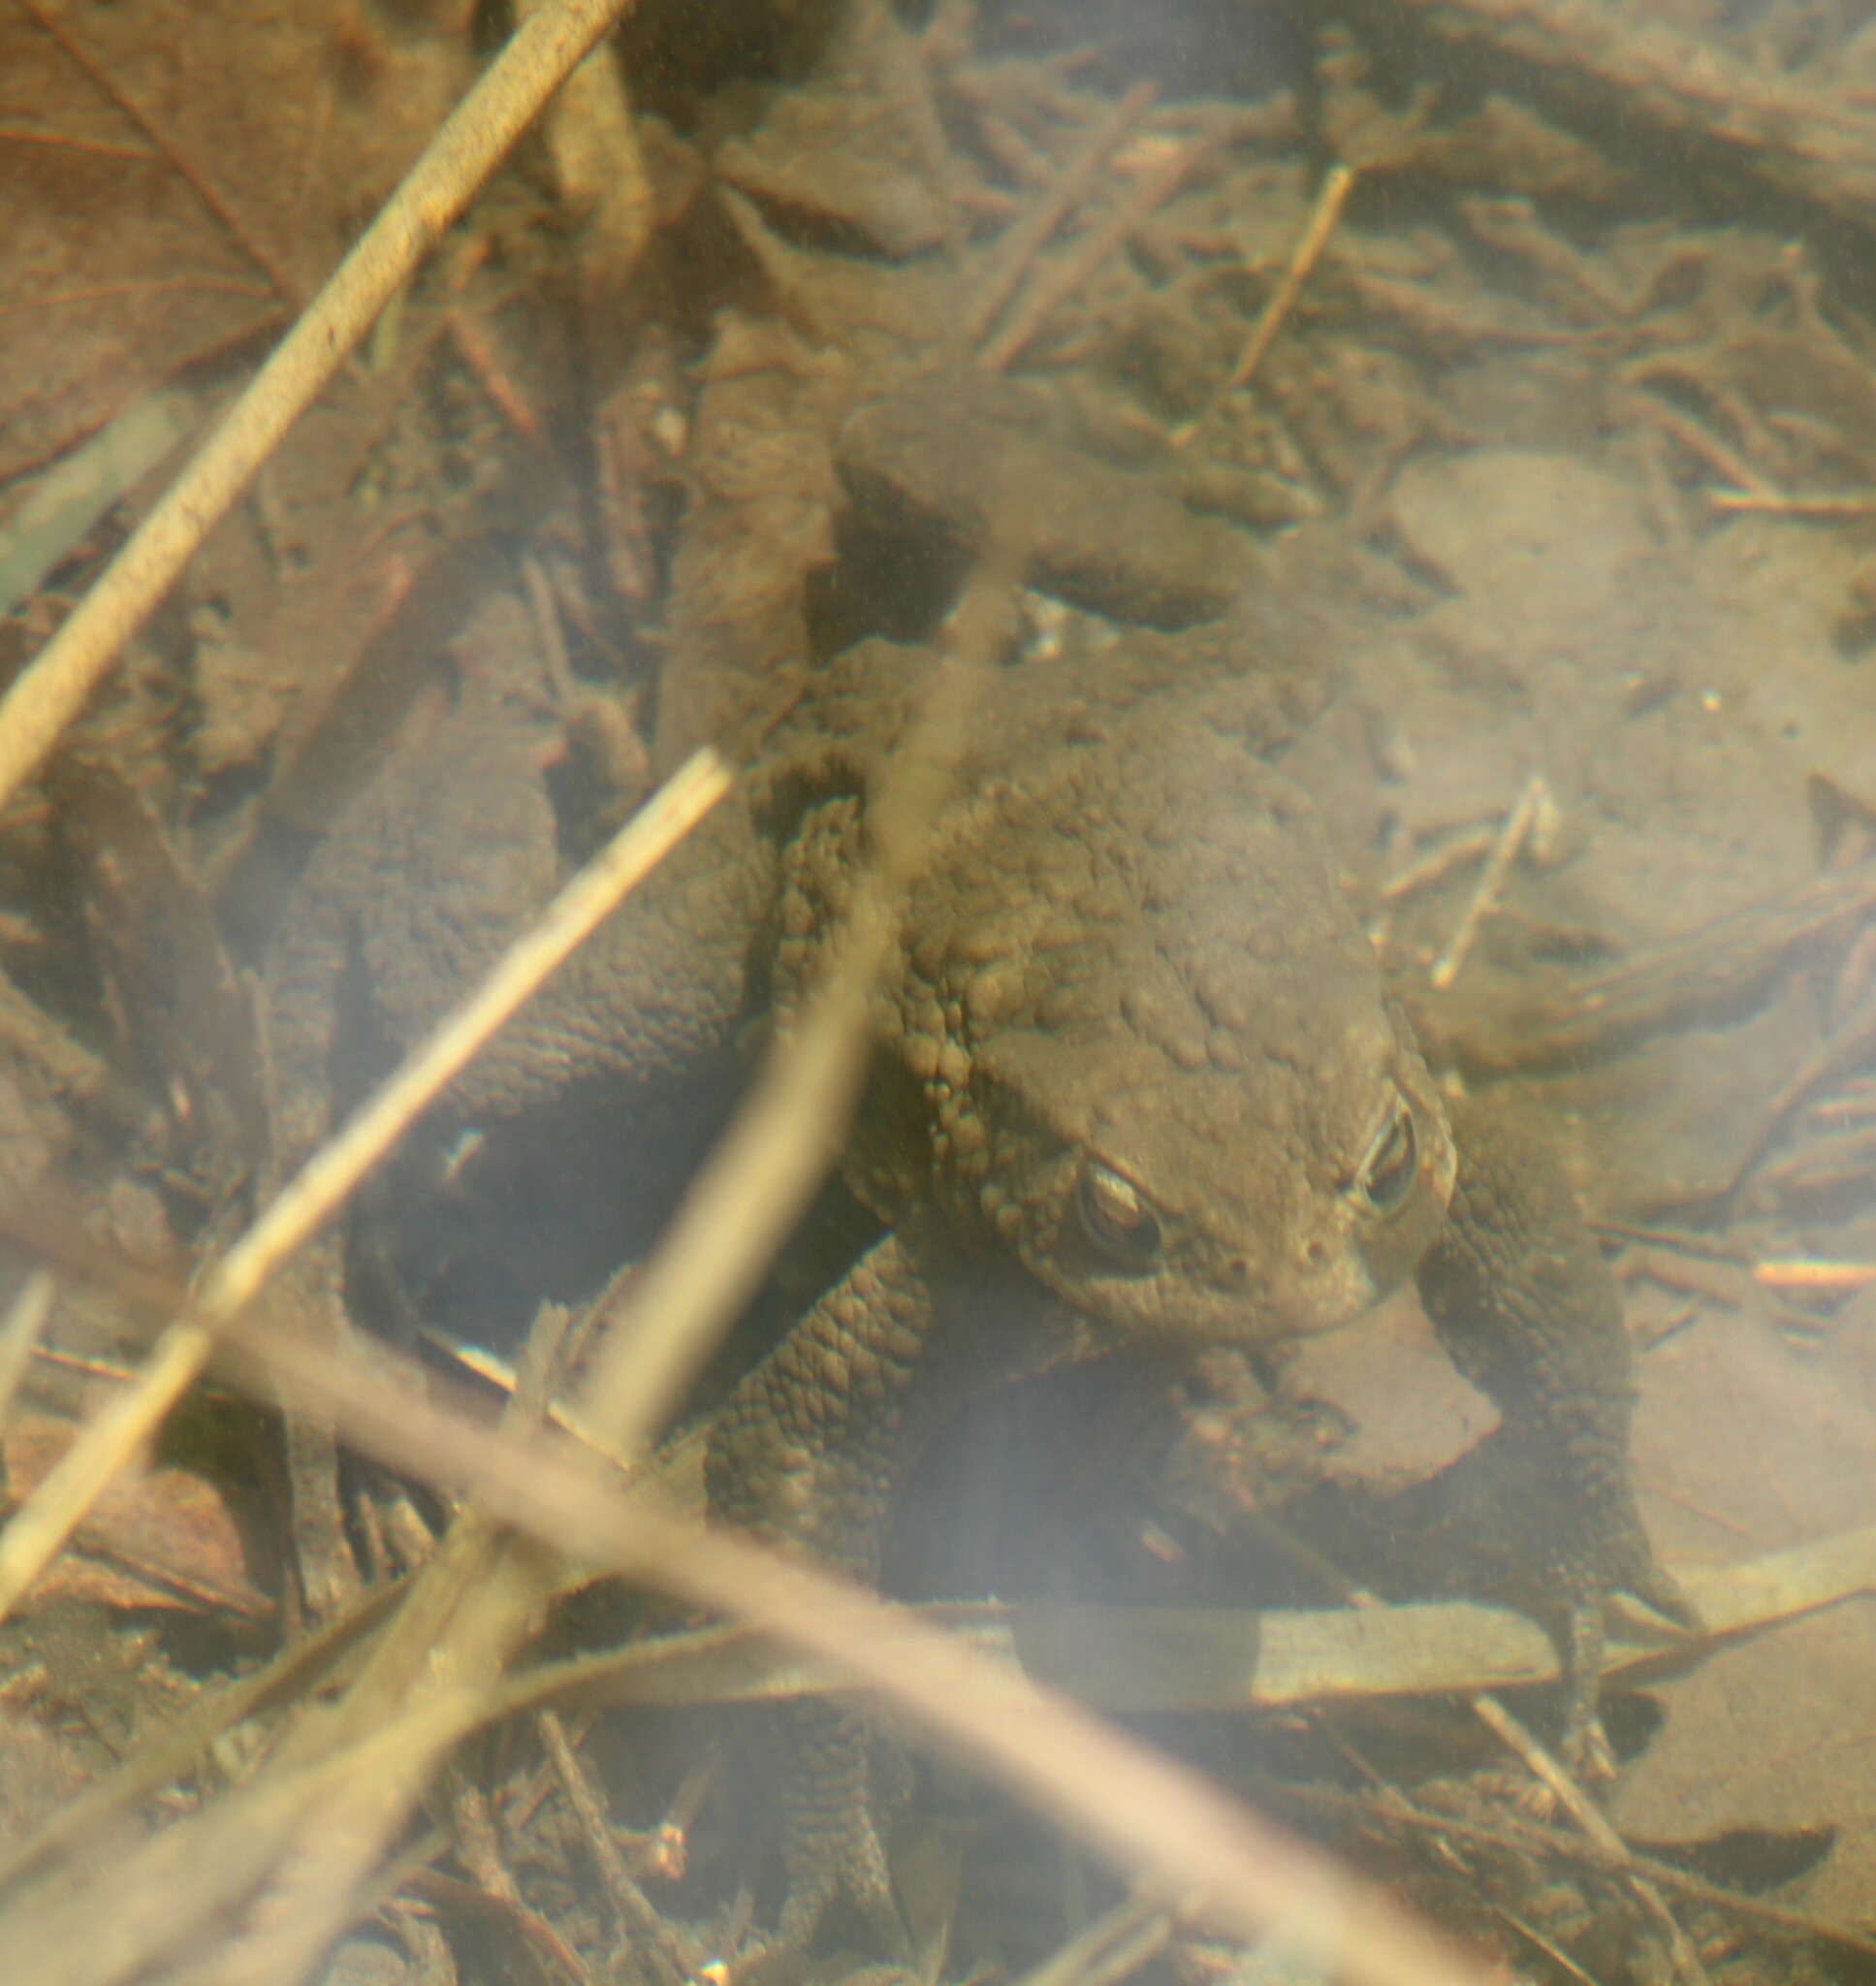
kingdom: Animalia
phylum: Chordata
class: Amphibia
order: Anura
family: Bufonidae
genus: Bufo
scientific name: Bufo bufo
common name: Common toad
